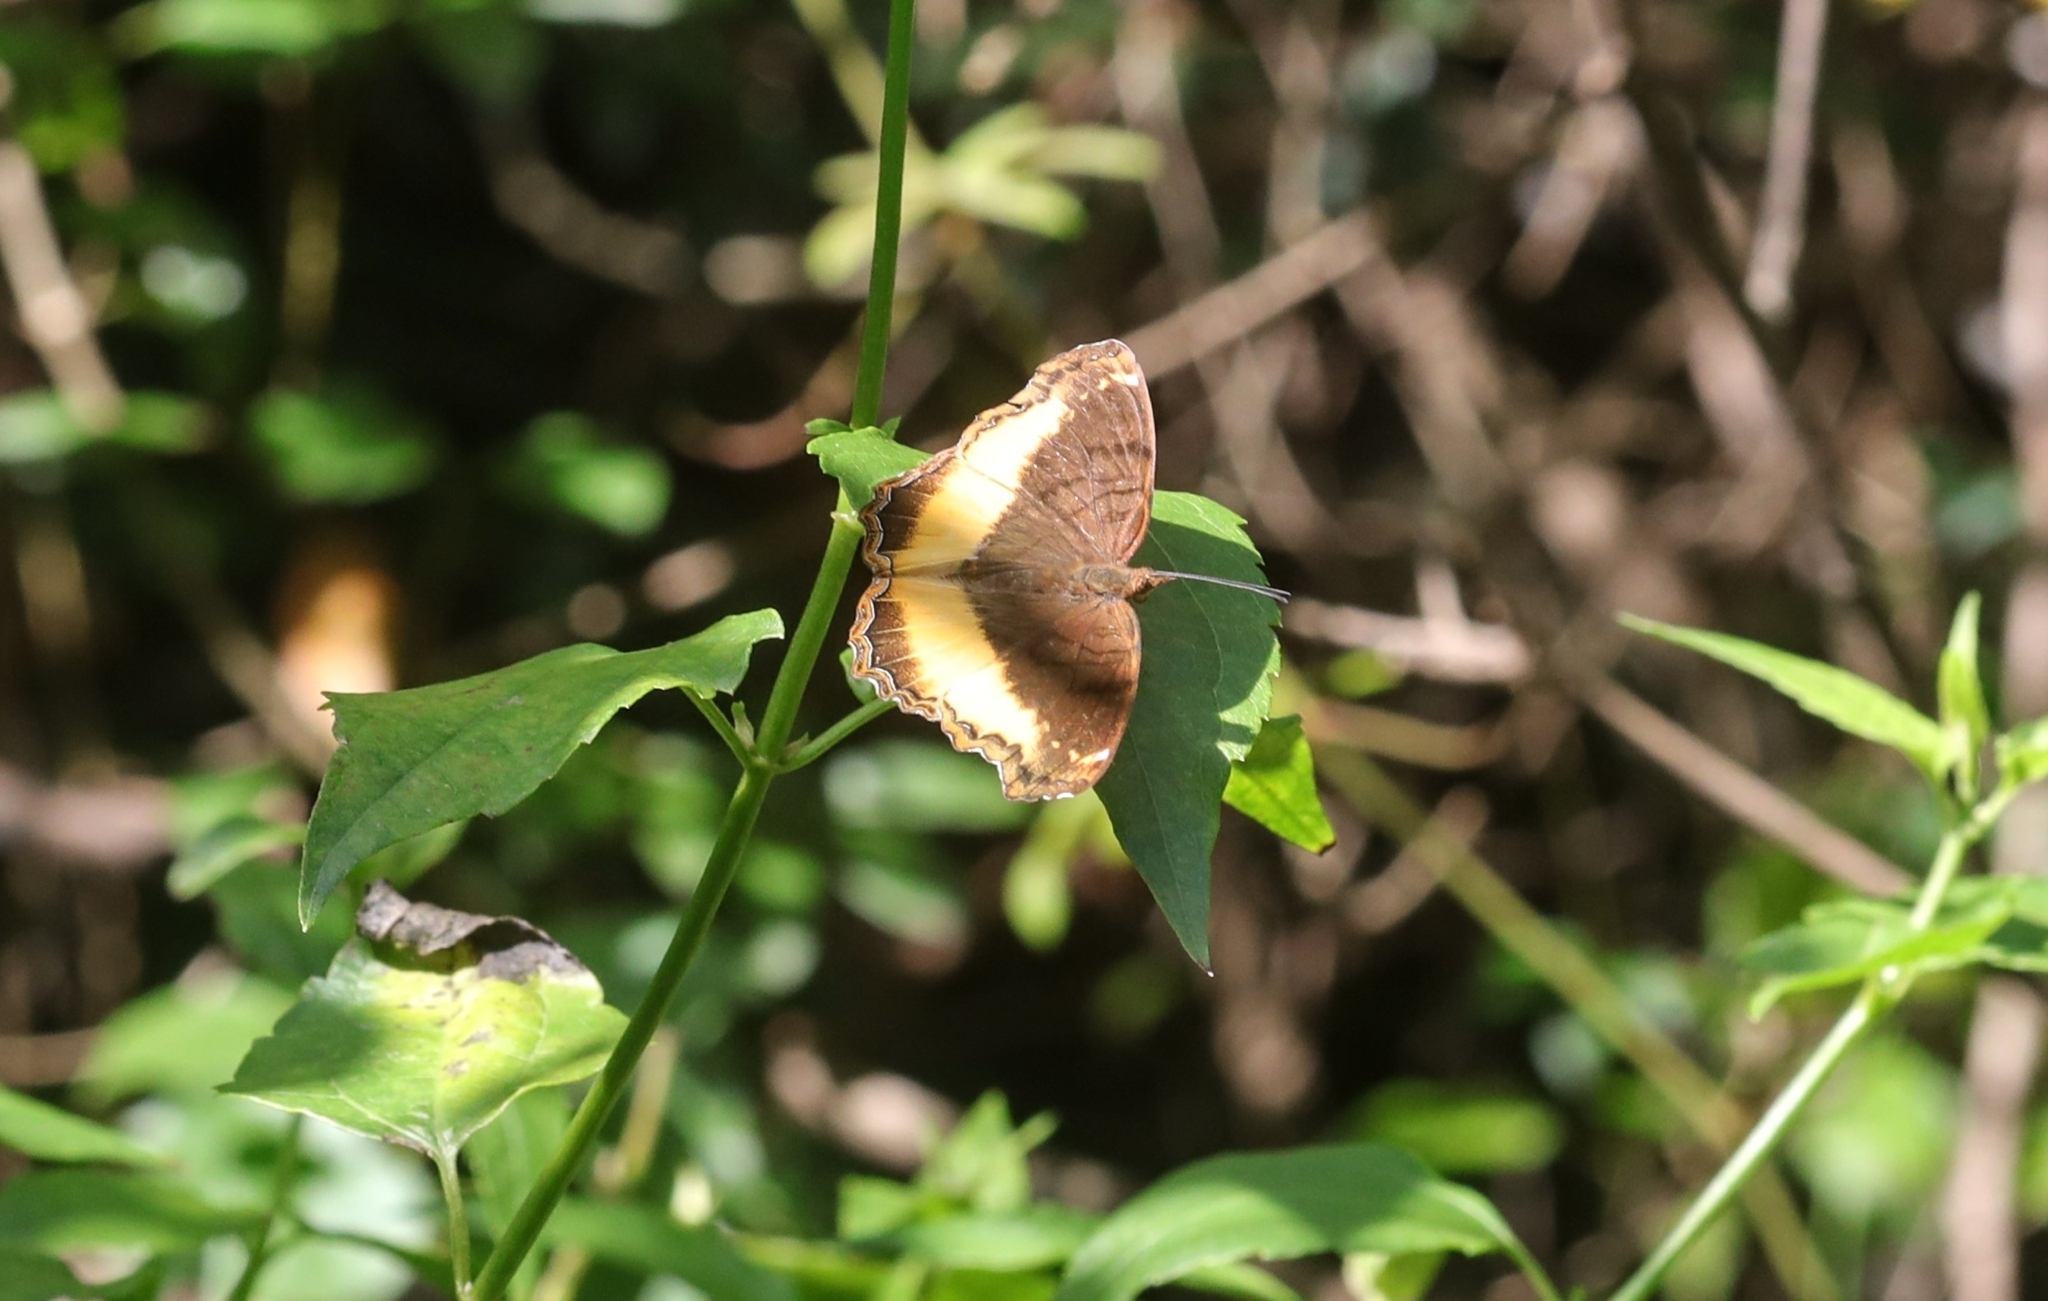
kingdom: Animalia
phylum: Arthropoda
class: Insecta
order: Lepidoptera
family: Nymphalidae
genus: Eurytela
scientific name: Eurytela dryope
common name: Golden piper
